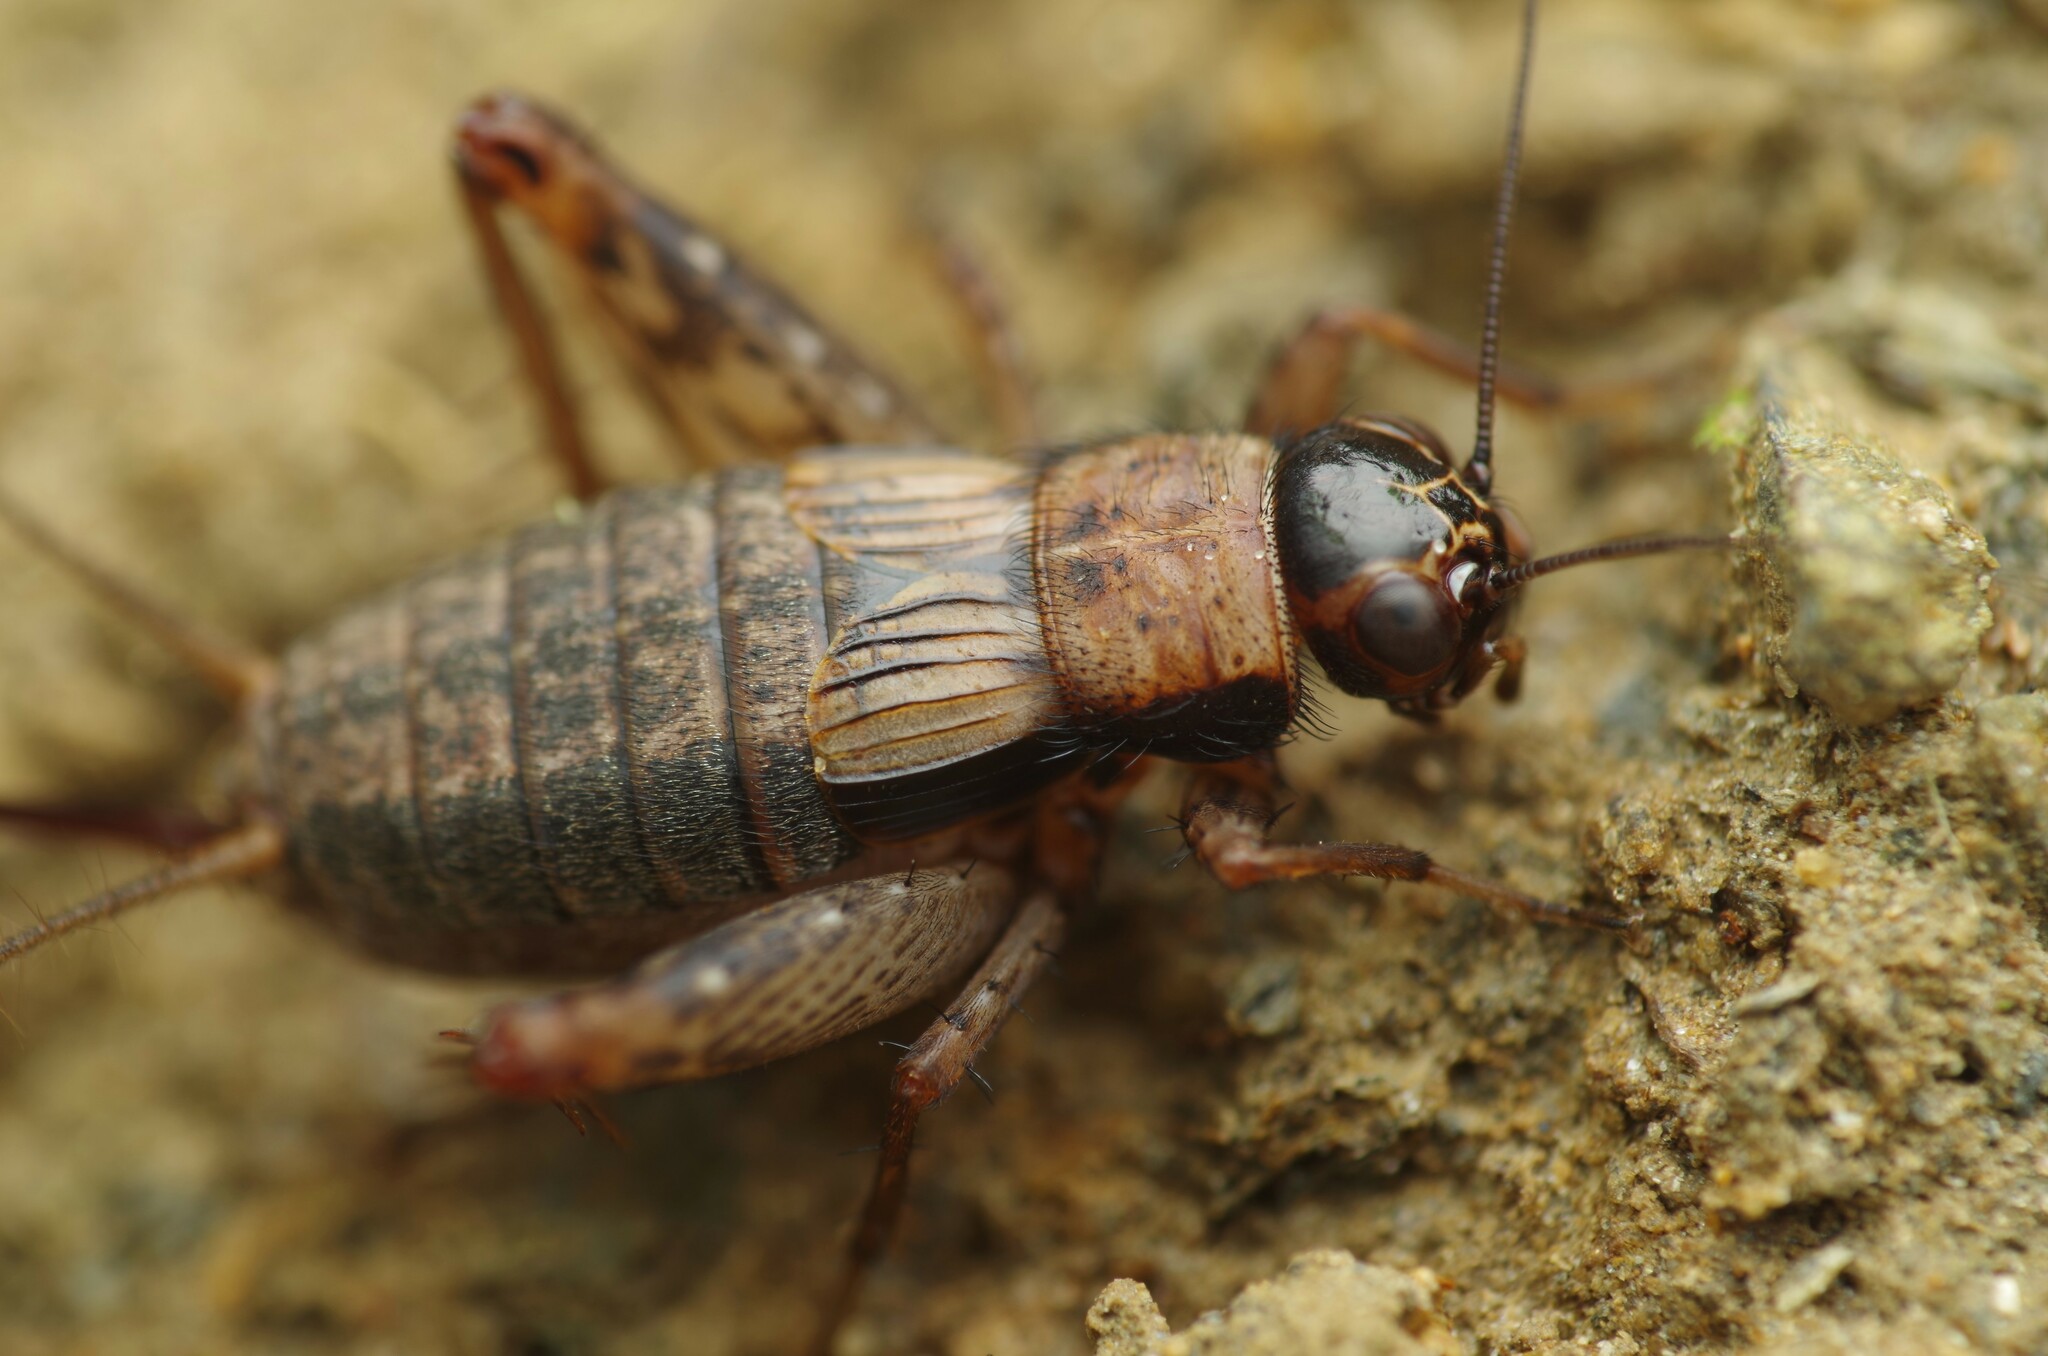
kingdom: Animalia
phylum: Arthropoda
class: Insecta
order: Orthoptera
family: Trigonidiidae
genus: Nemobius
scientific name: Nemobius sylvestris
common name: Wood-cricket
